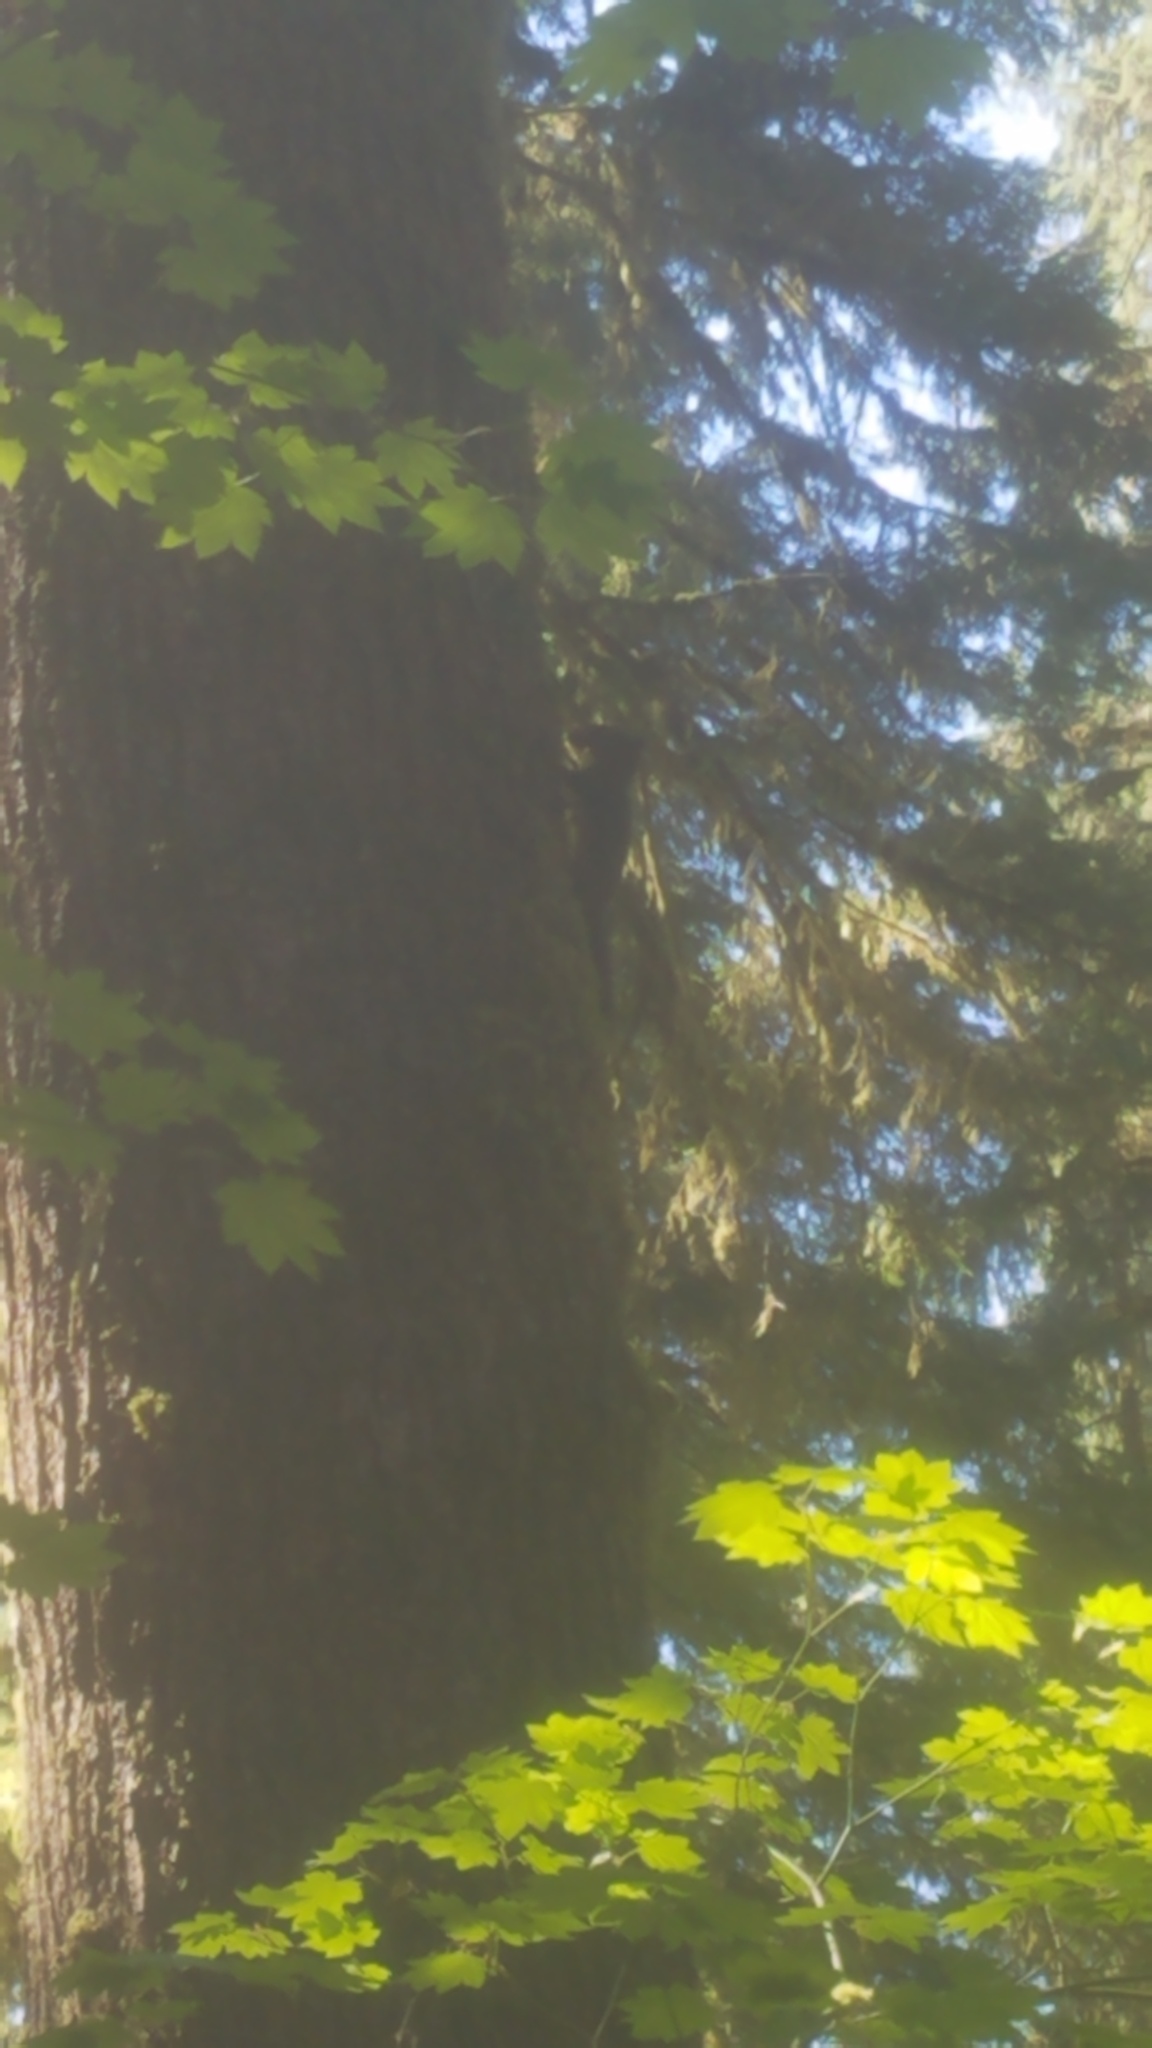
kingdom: Animalia
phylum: Chordata
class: Mammalia
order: Rodentia
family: Sciuridae
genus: Tamiasciurus
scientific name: Tamiasciurus douglasii
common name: Douglas's squirrel
